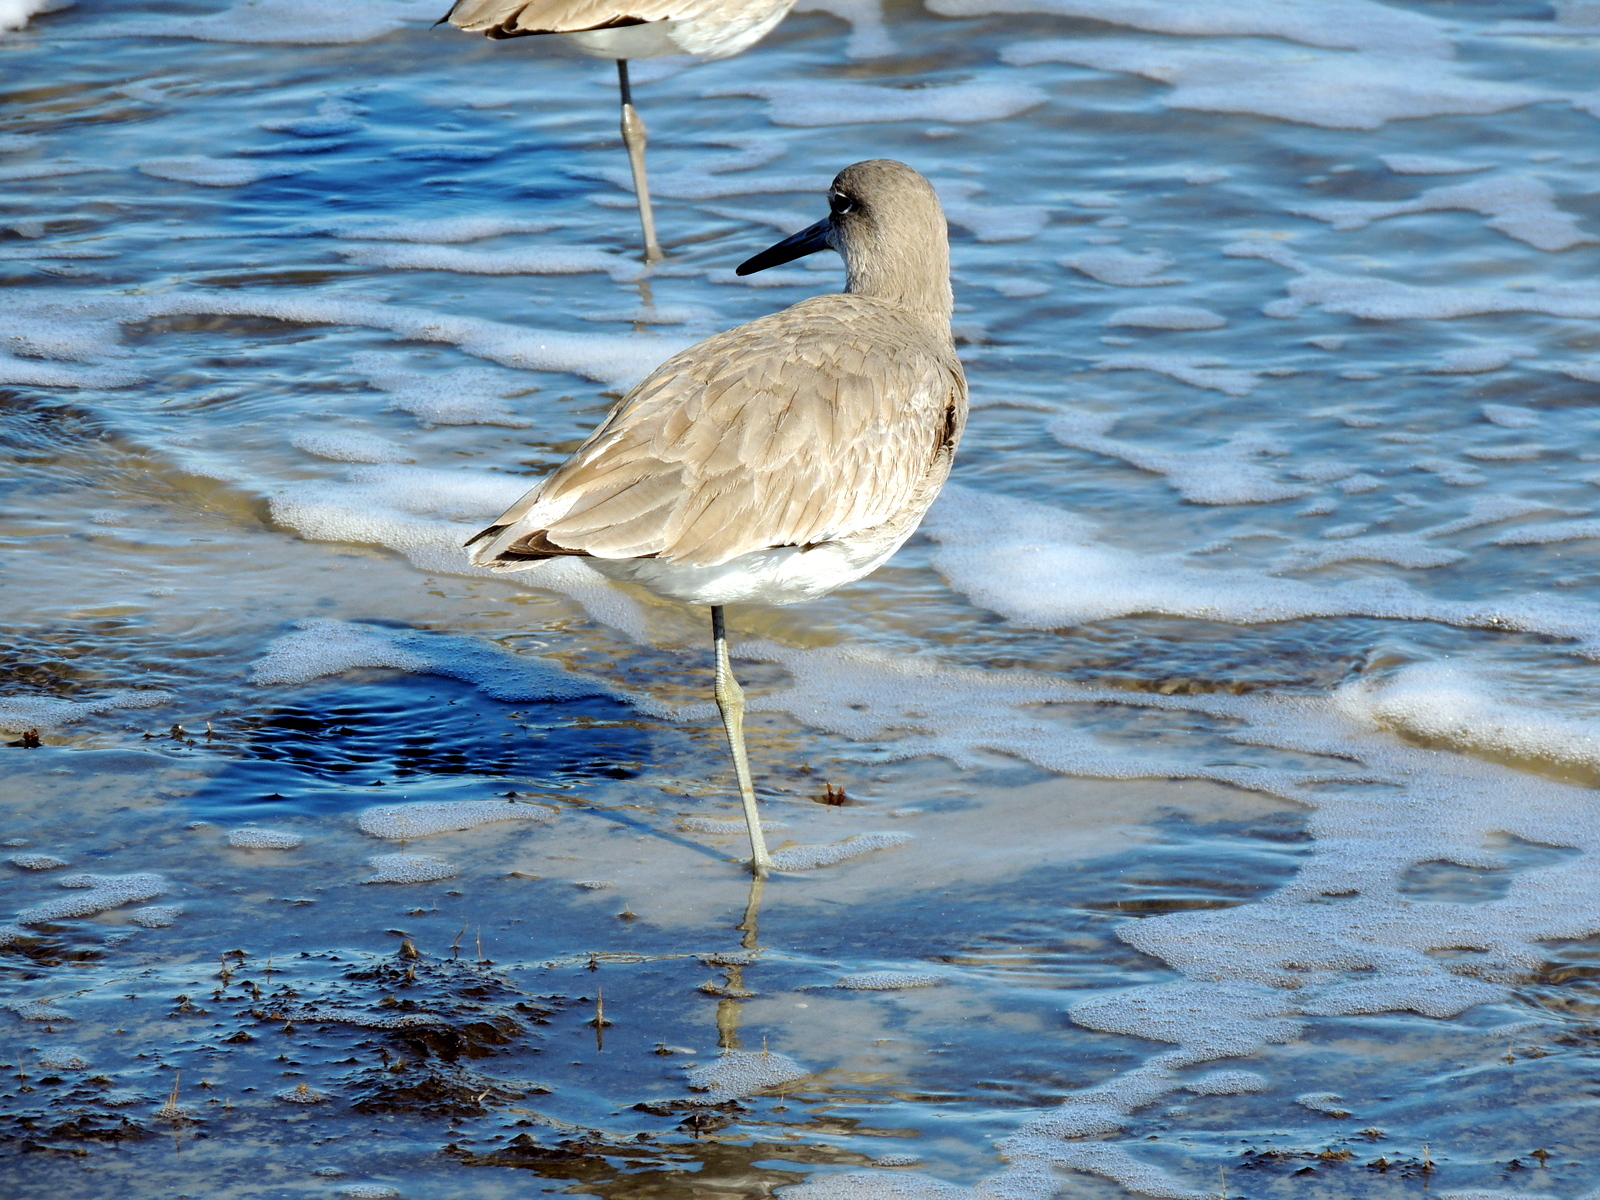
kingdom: Animalia
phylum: Chordata
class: Aves
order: Charadriiformes
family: Scolopacidae
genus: Tringa
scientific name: Tringa semipalmata
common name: Willet
